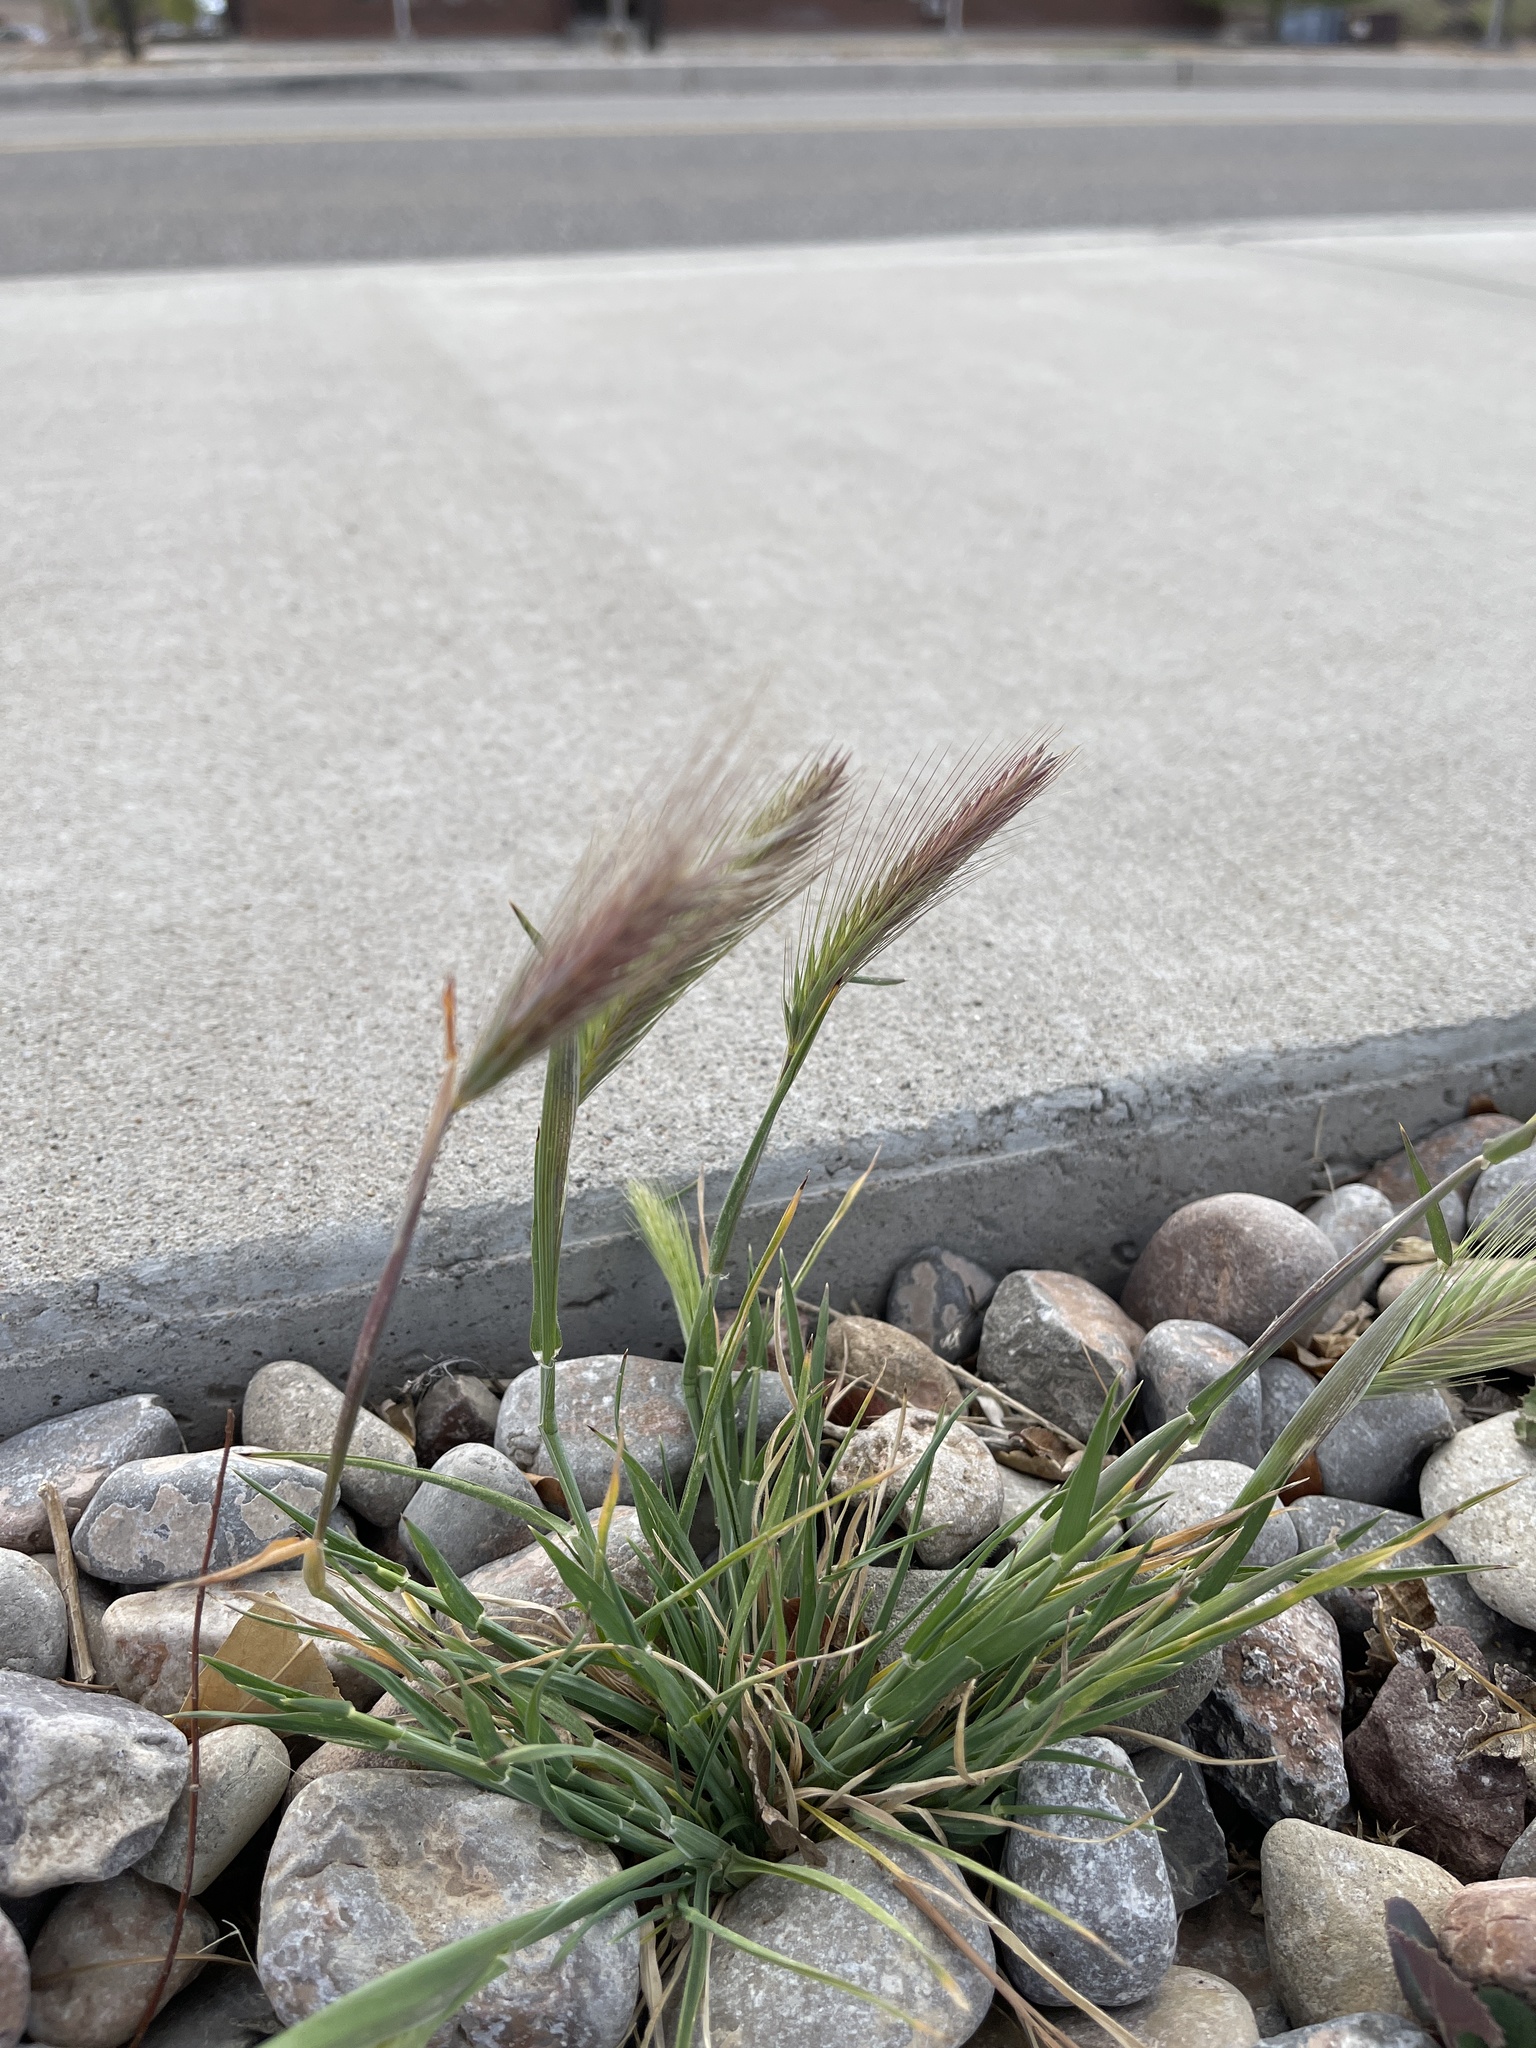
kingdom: Plantae
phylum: Tracheophyta
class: Liliopsida
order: Poales
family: Poaceae
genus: Hordeum
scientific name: Hordeum murinum
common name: Wall barley
